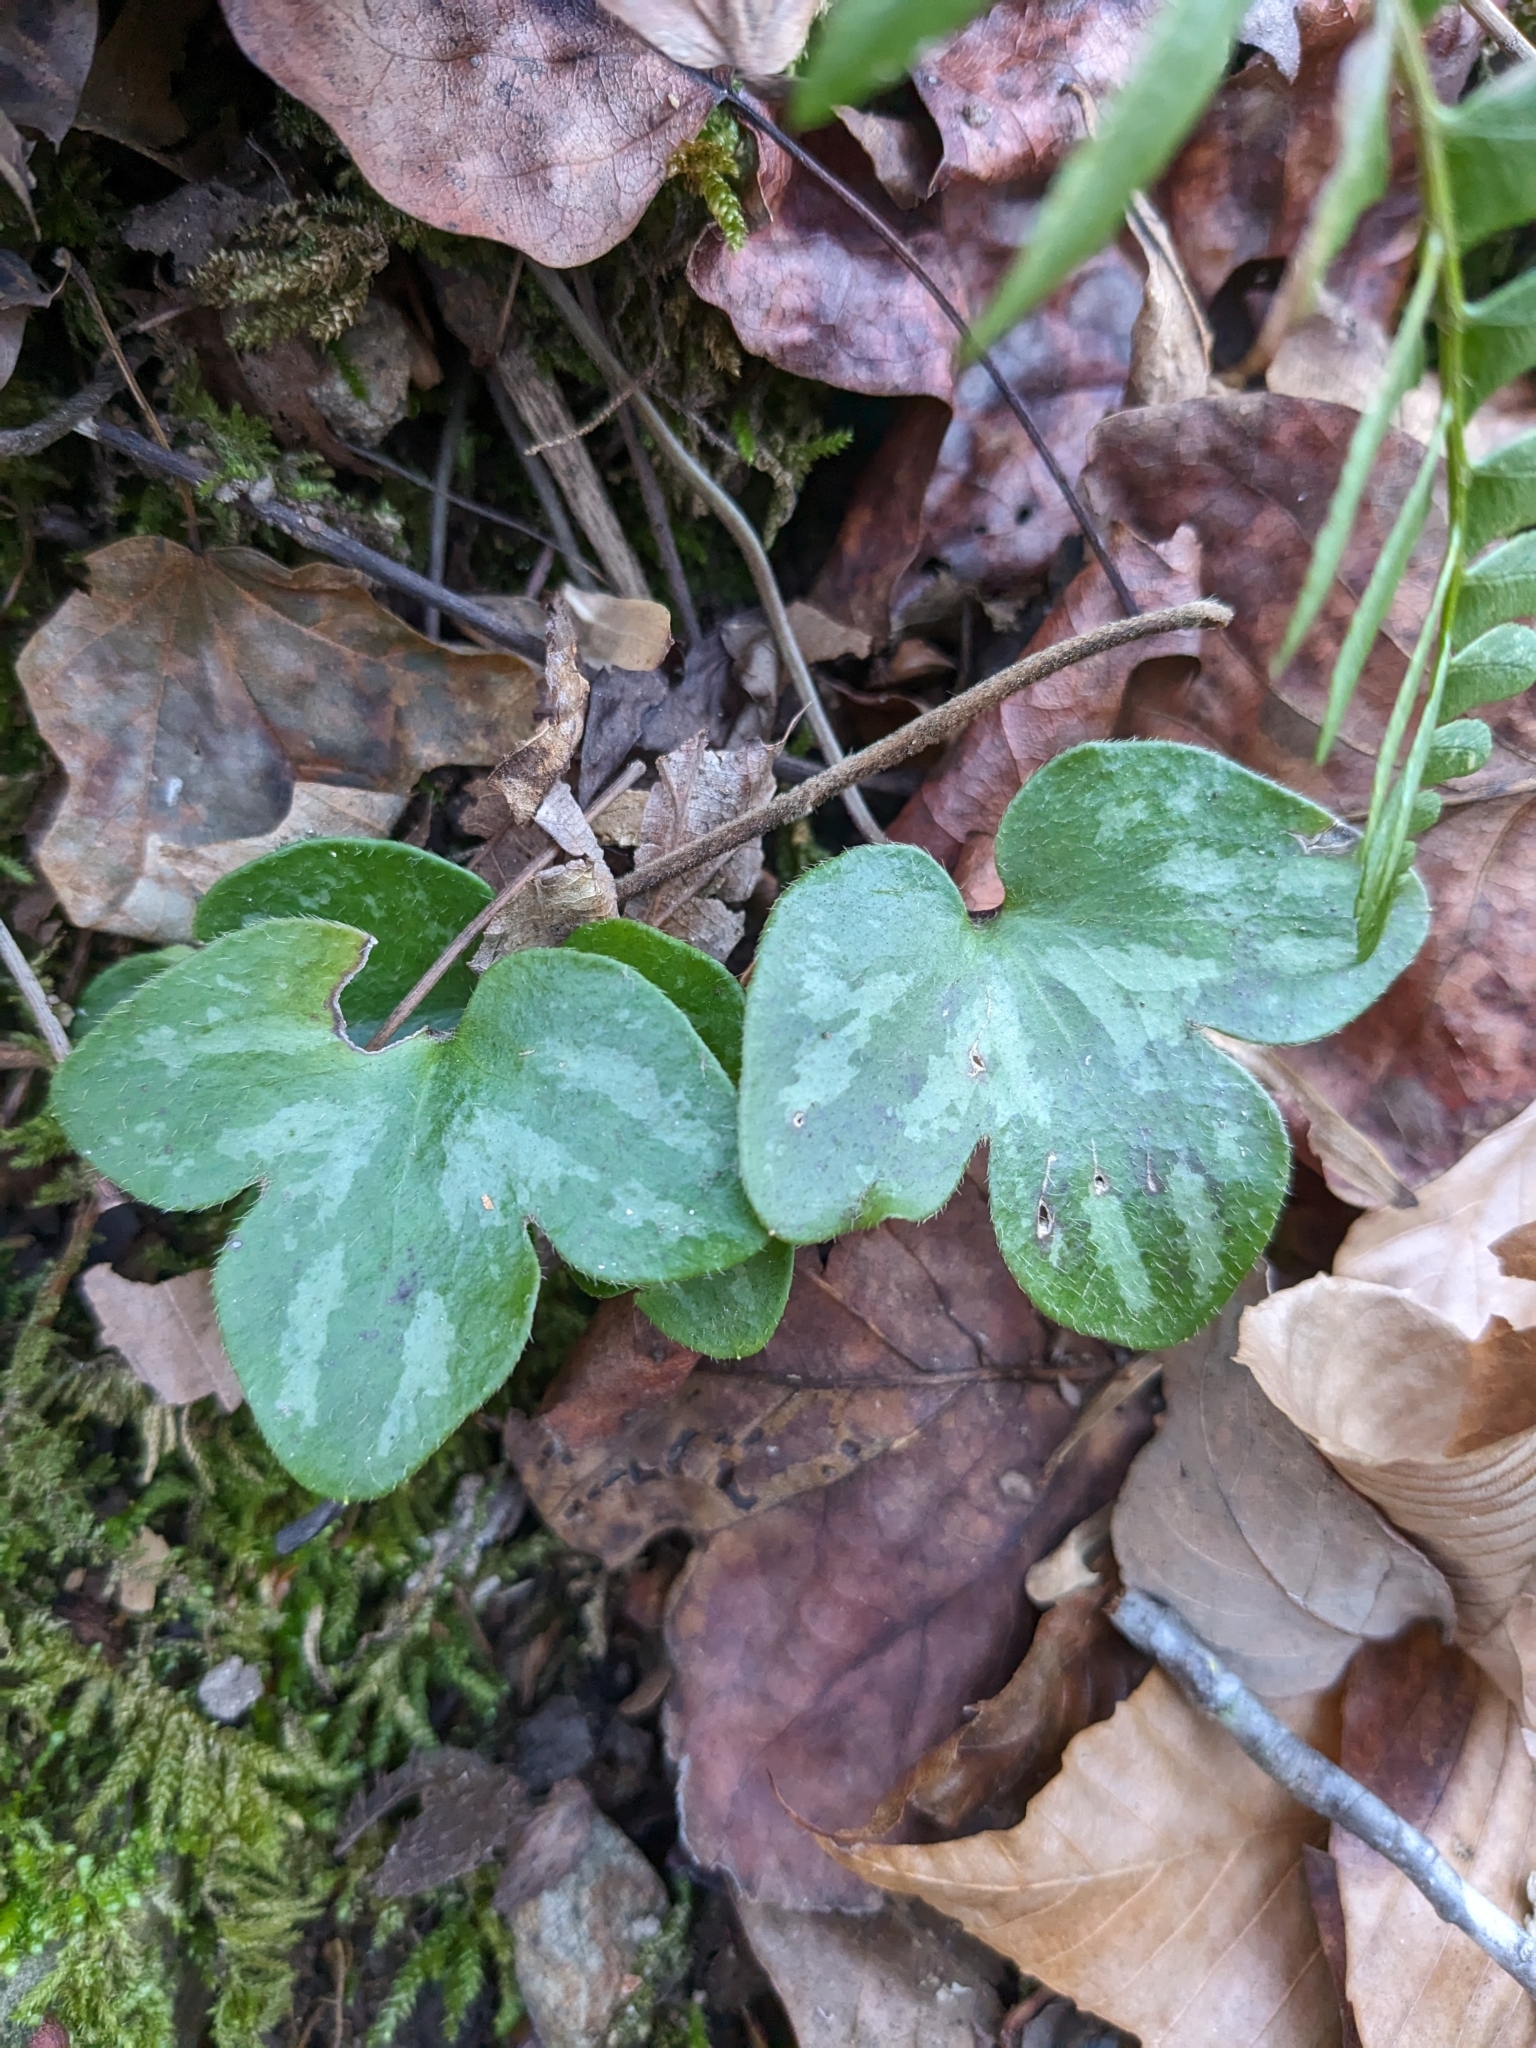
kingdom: Plantae
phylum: Tracheophyta
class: Magnoliopsida
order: Ranunculales
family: Ranunculaceae
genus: Hepatica
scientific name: Hepatica americana
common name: American hepatica
